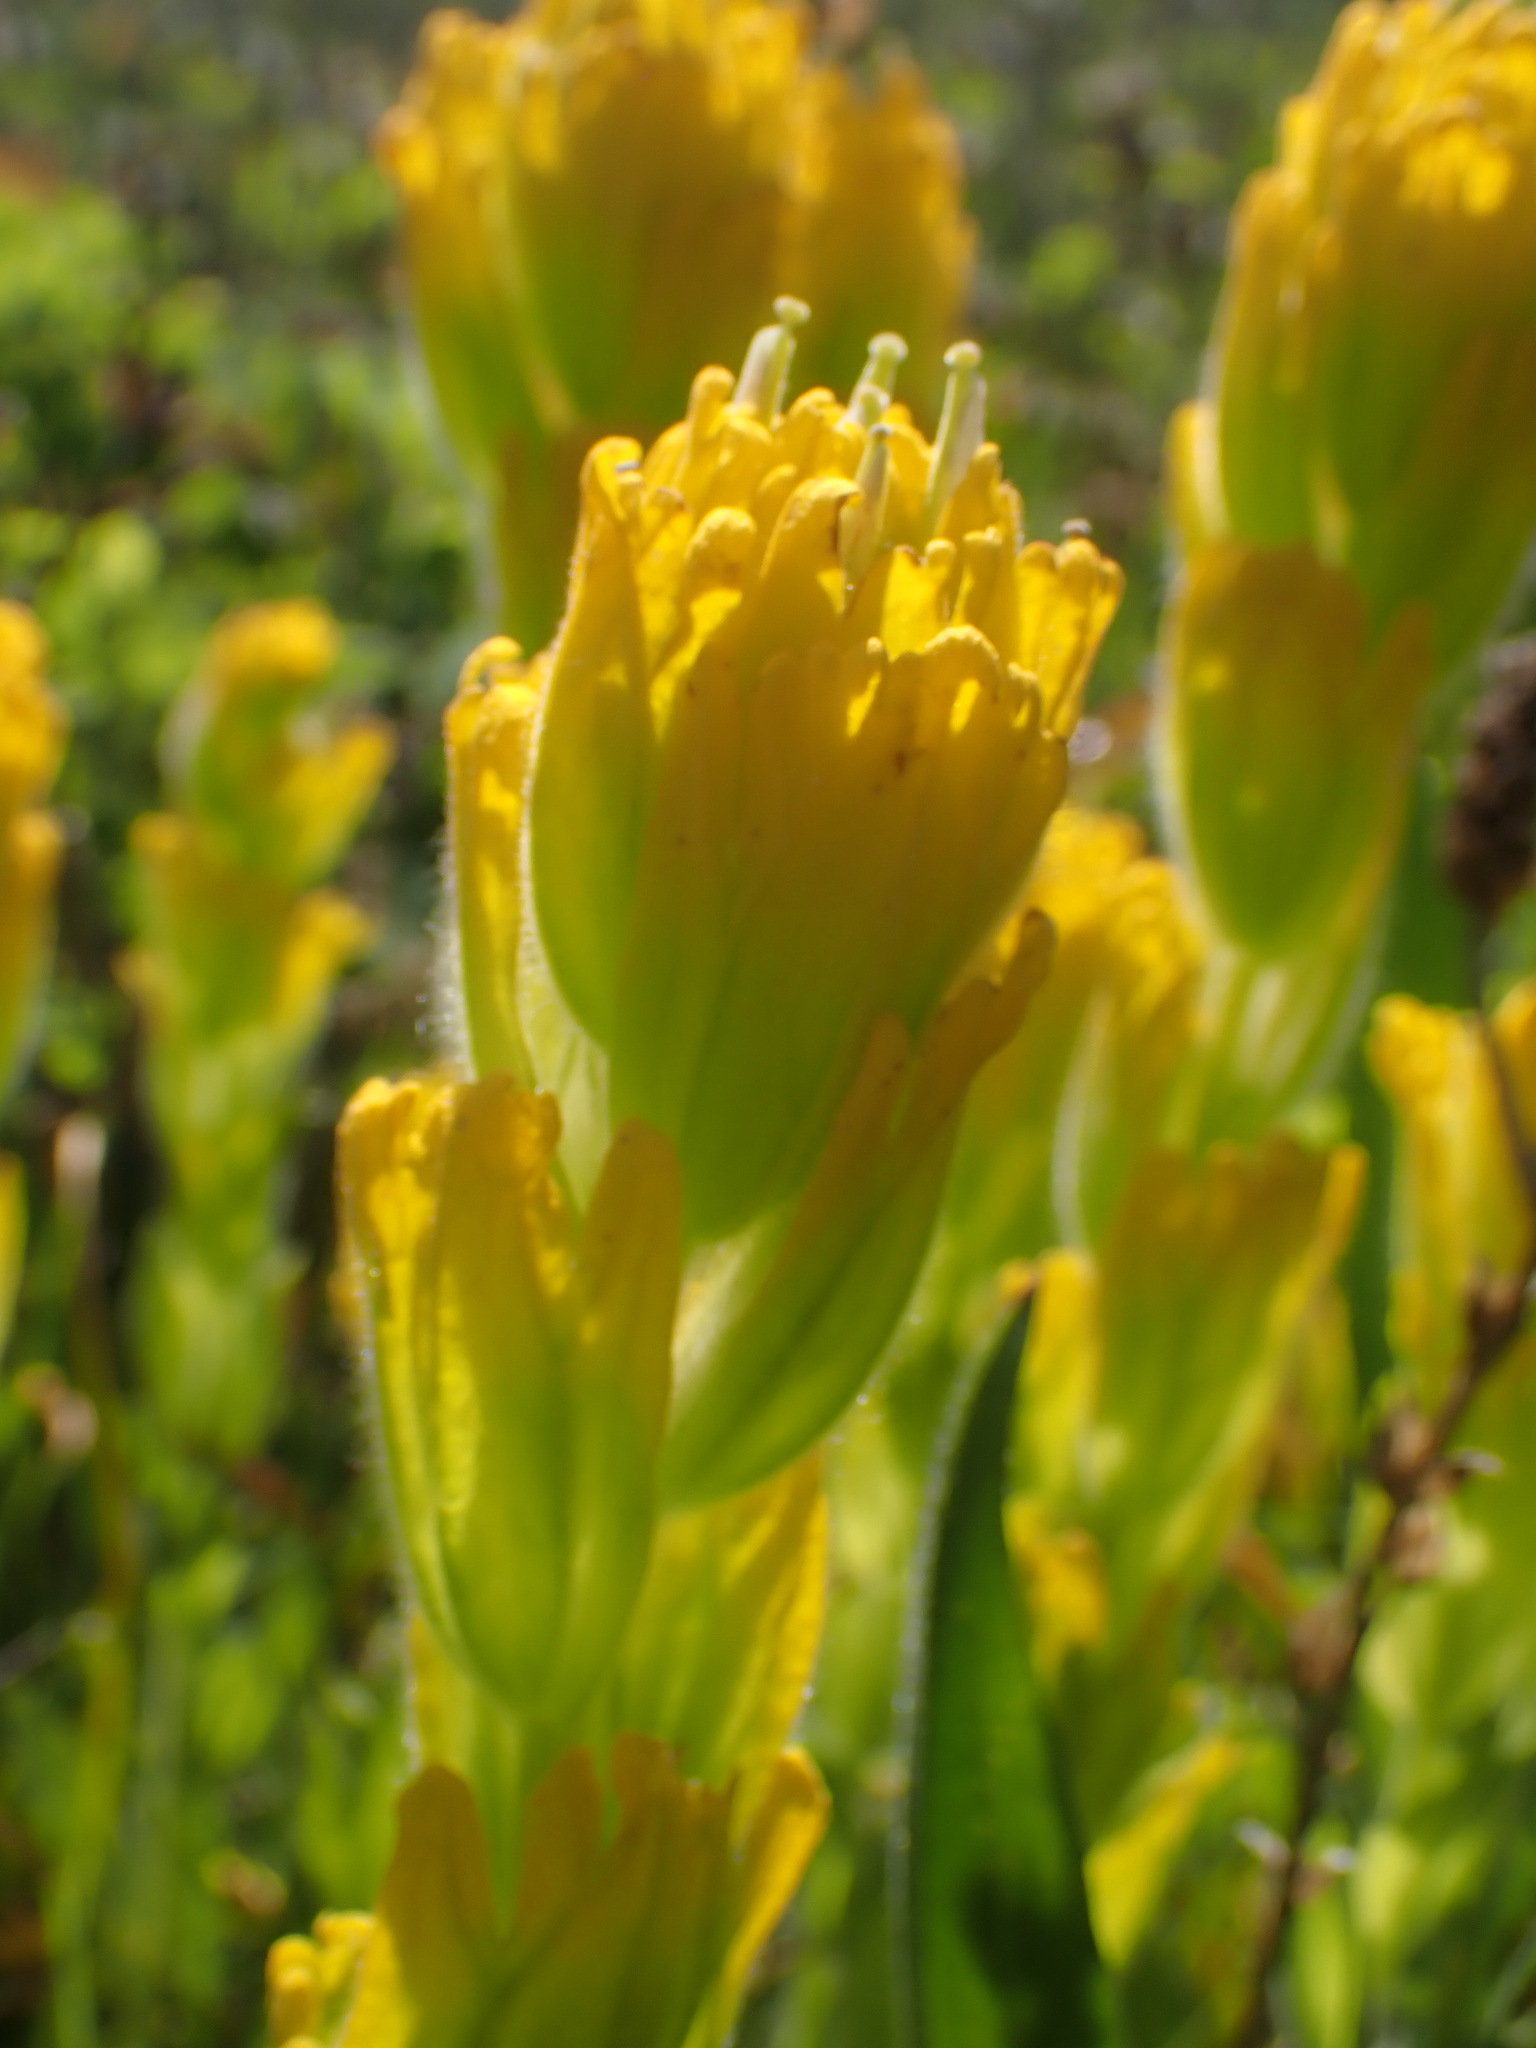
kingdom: Plantae
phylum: Tracheophyta
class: Magnoliopsida
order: Lamiales
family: Orobanchaceae
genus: Castilleja
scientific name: Castilleja levisecta
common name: Golden paintbrush
